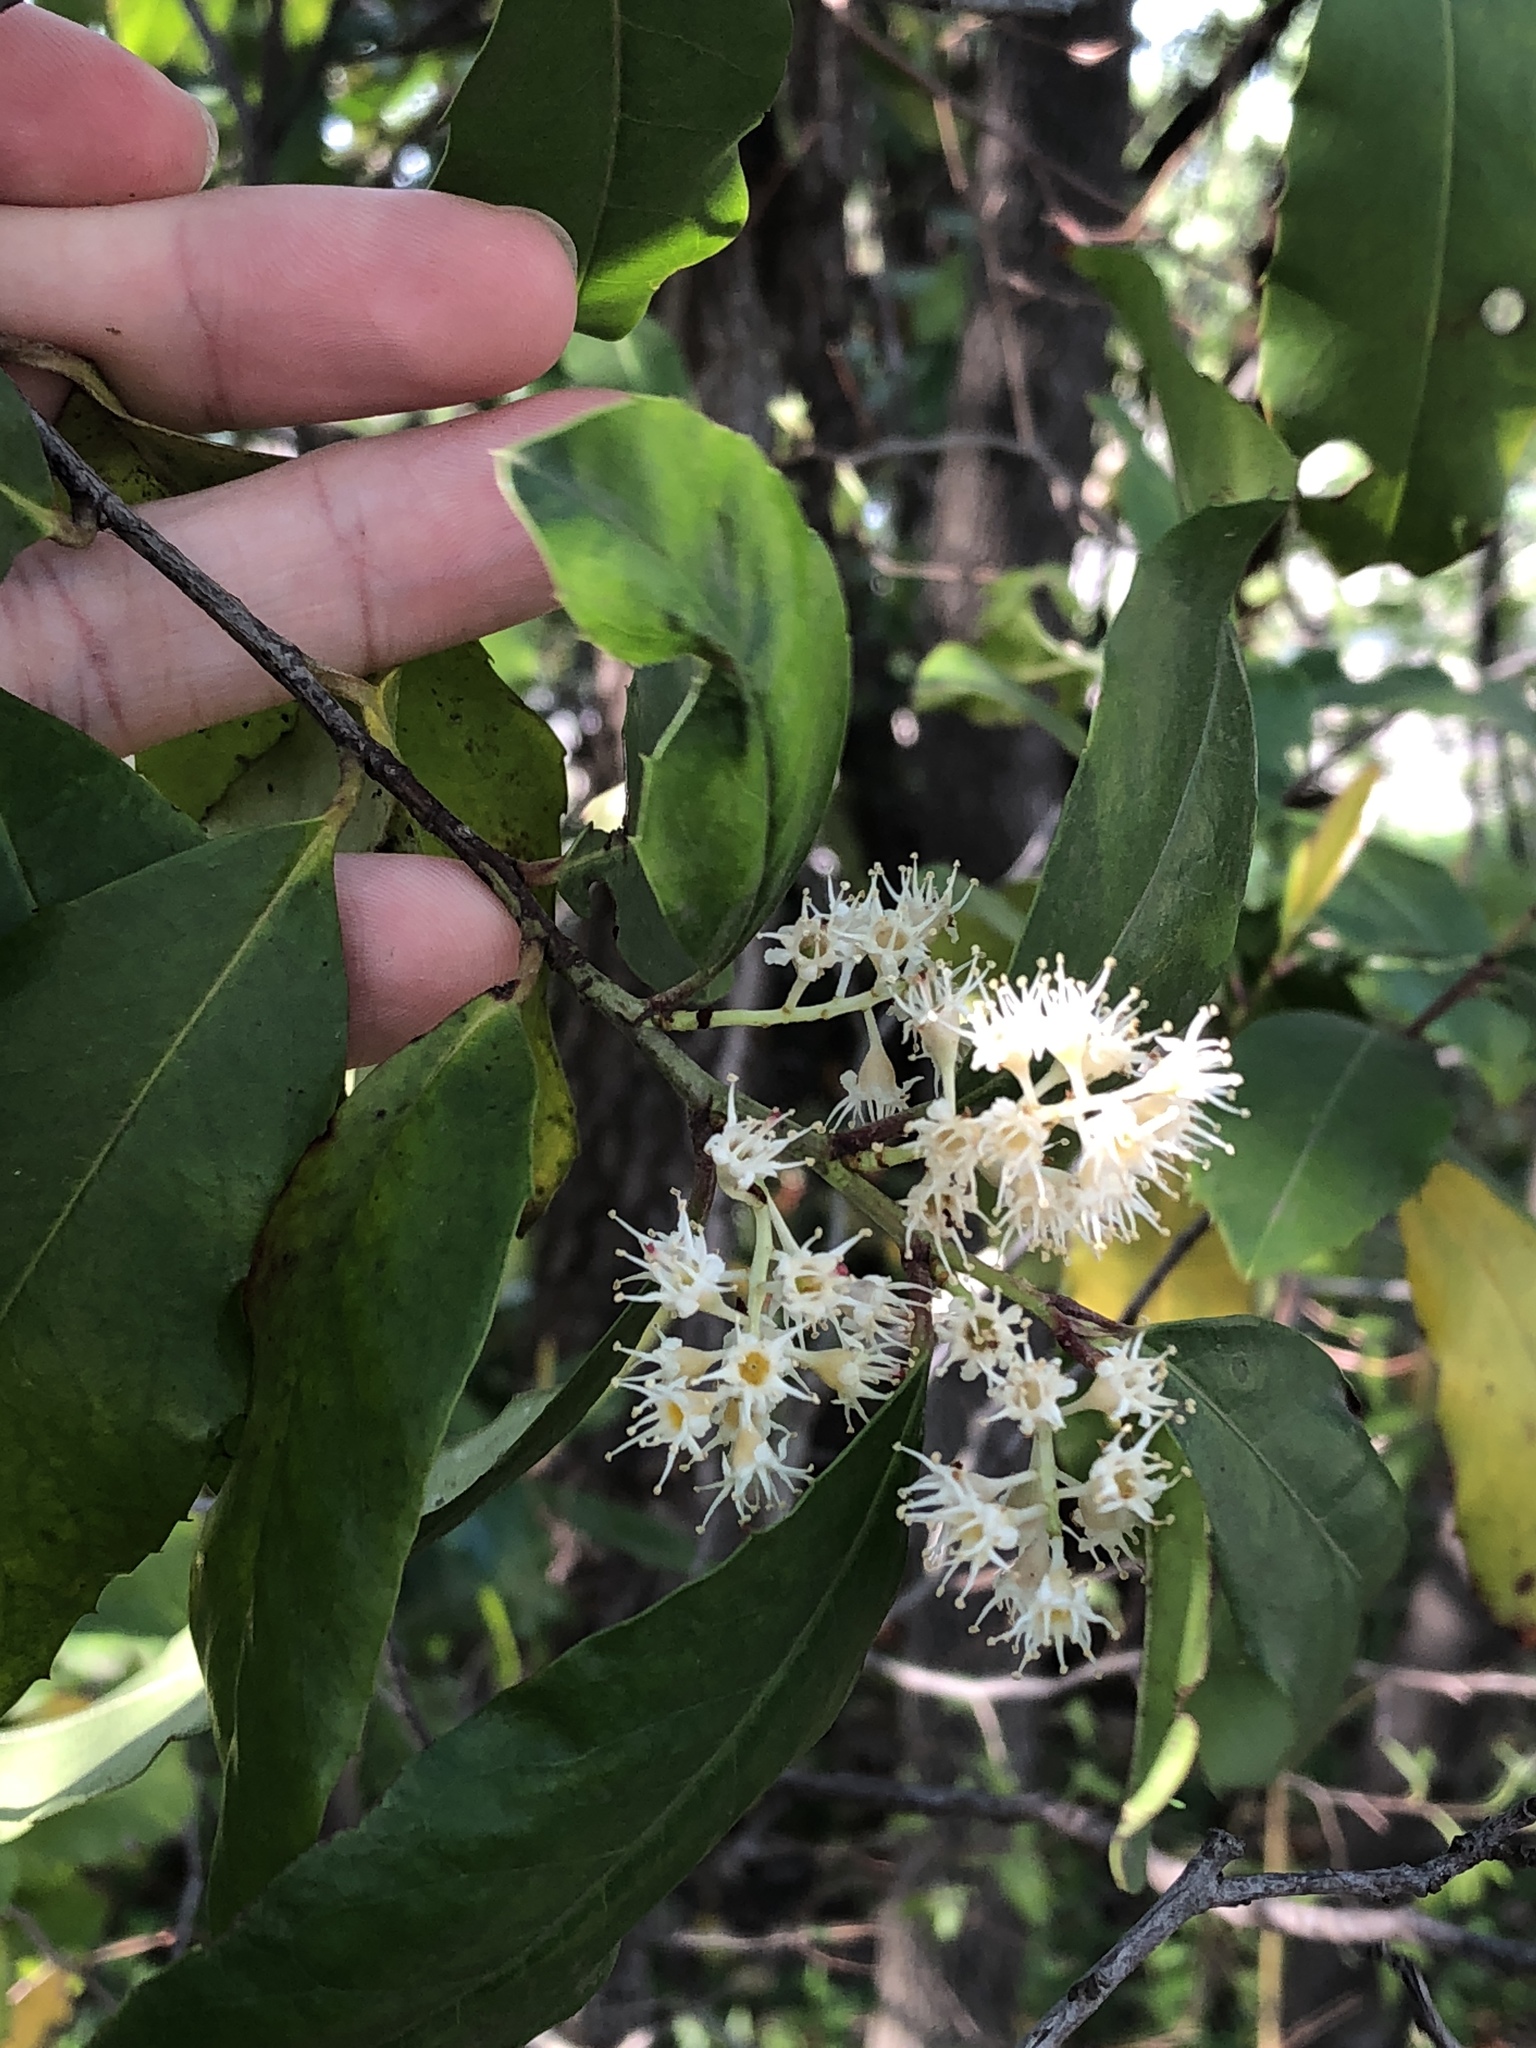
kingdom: Plantae
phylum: Tracheophyta
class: Magnoliopsida
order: Rosales
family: Rosaceae
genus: Prunus
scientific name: Prunus caroliniana
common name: Carolina laurel cherry
